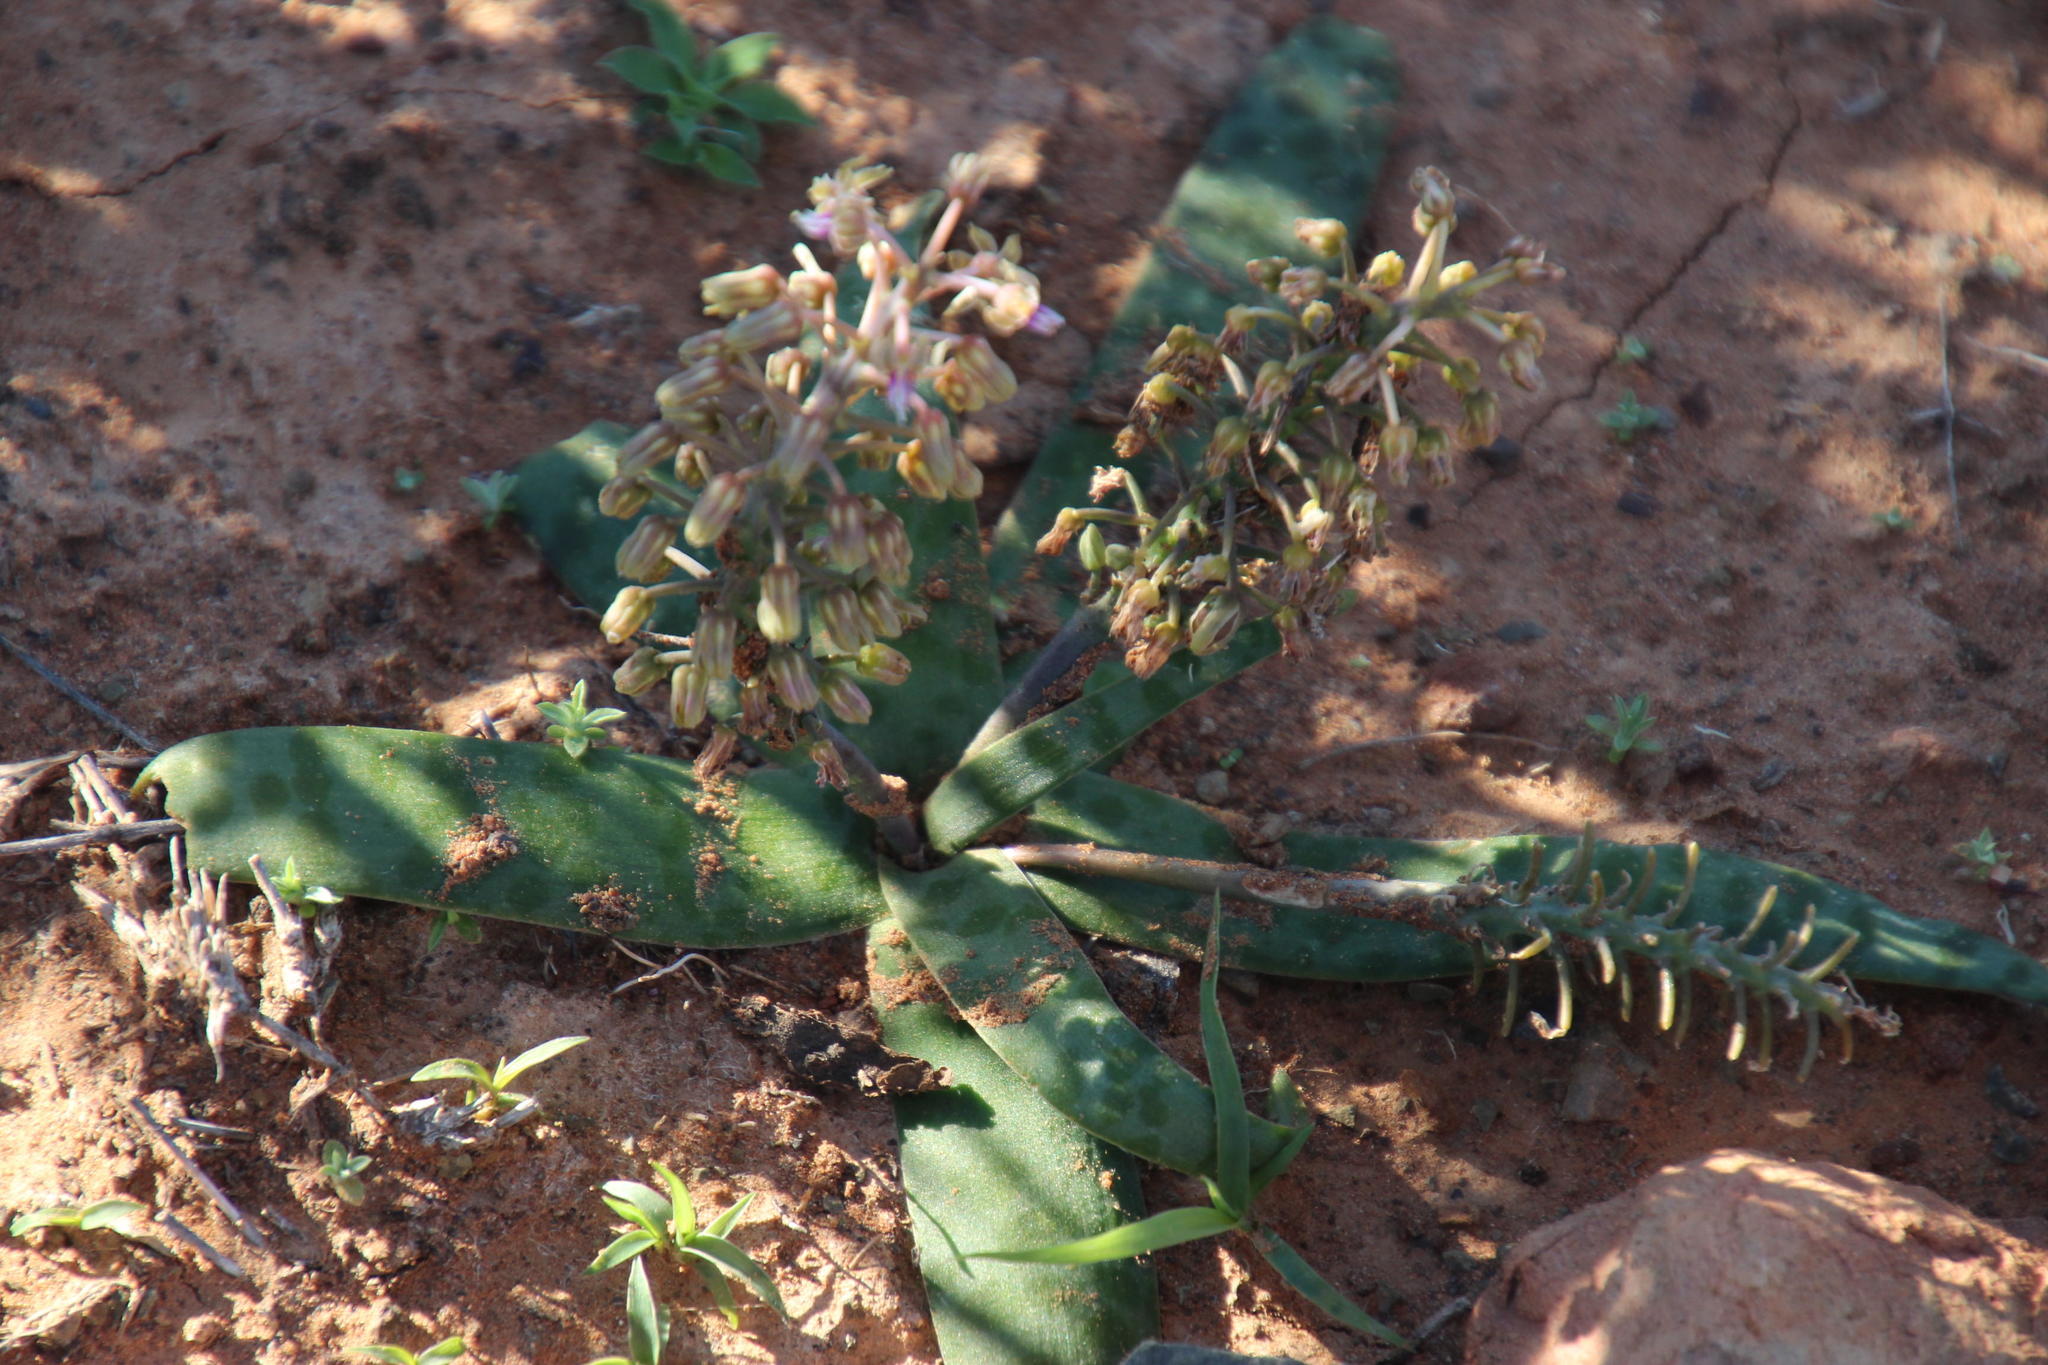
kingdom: Plantae
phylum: Tracheophyta
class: Liliopsida
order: Asparagales
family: Asparagaceae
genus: Ledebouria
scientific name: Ledebouria apertiflora
